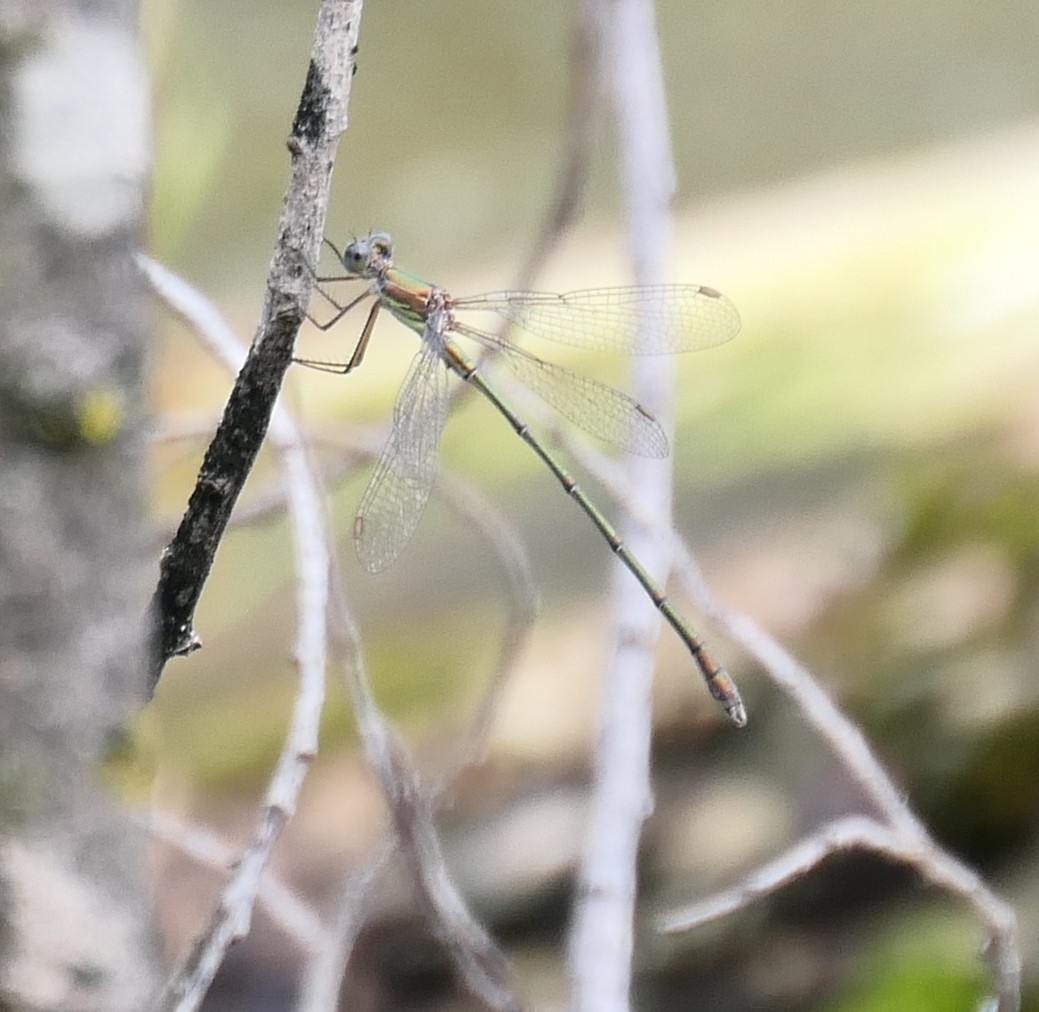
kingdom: Animalia
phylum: Arthropoda
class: Insecta
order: Odonata
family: Lestidae
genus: Chalcolestes
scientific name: Chalcolestes viridis
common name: Green emerald damselfly
